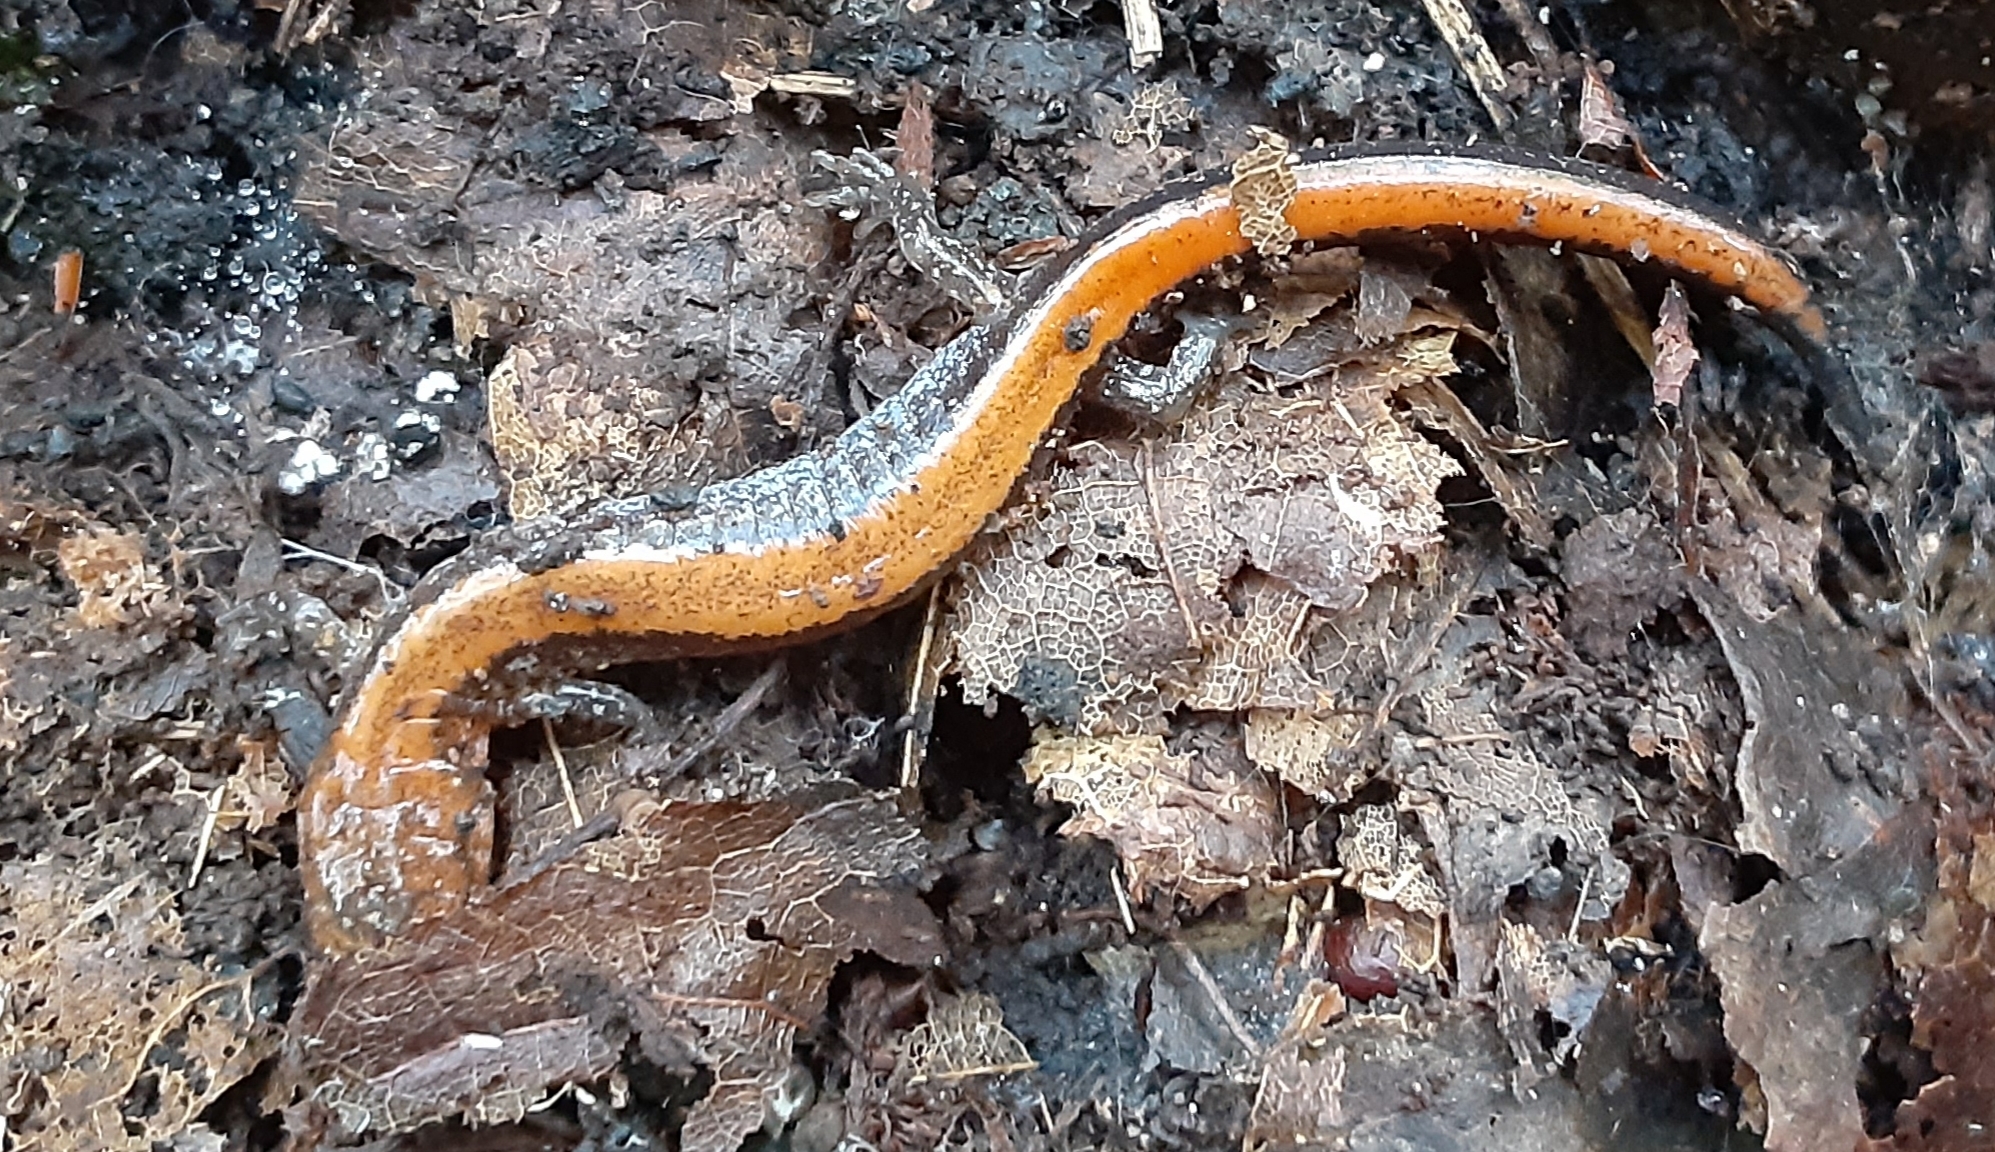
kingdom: Animalia
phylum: Chordata
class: Amphibia
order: Caudata
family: Plethodontidae
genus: Plethodon
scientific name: Plethodon cinereus
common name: Redback salamander
